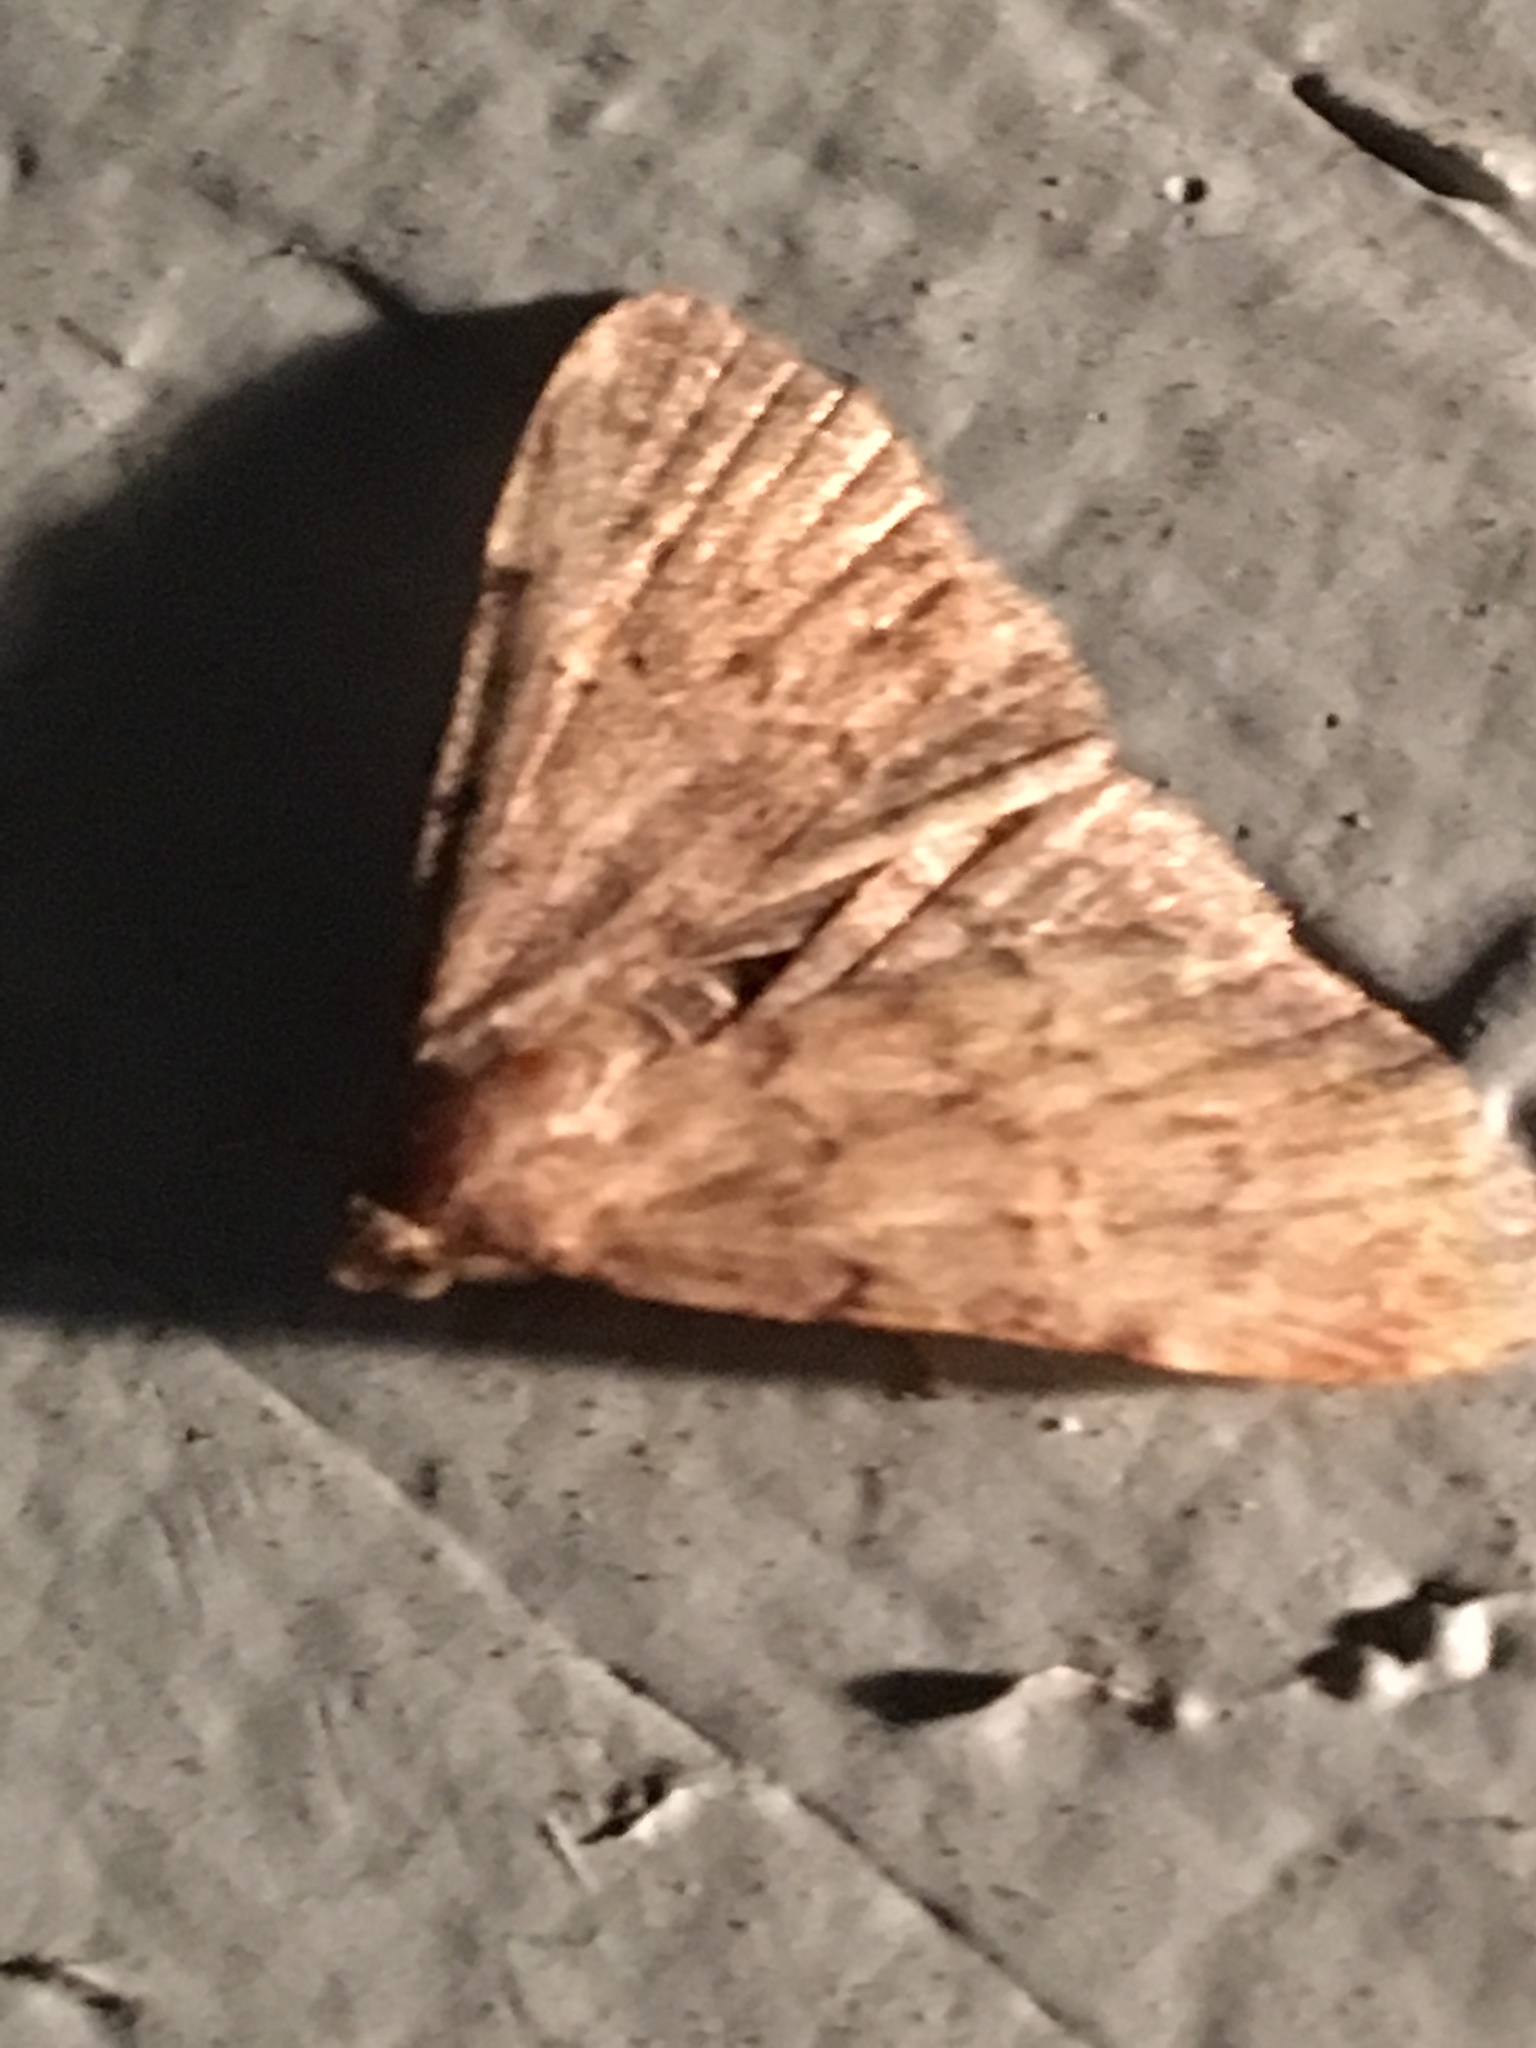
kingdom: Animalia
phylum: Arthropoda
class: Insecta
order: Lepidoptera
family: Erebidae
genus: Idia
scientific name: Idia aemula
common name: Common idia moth
